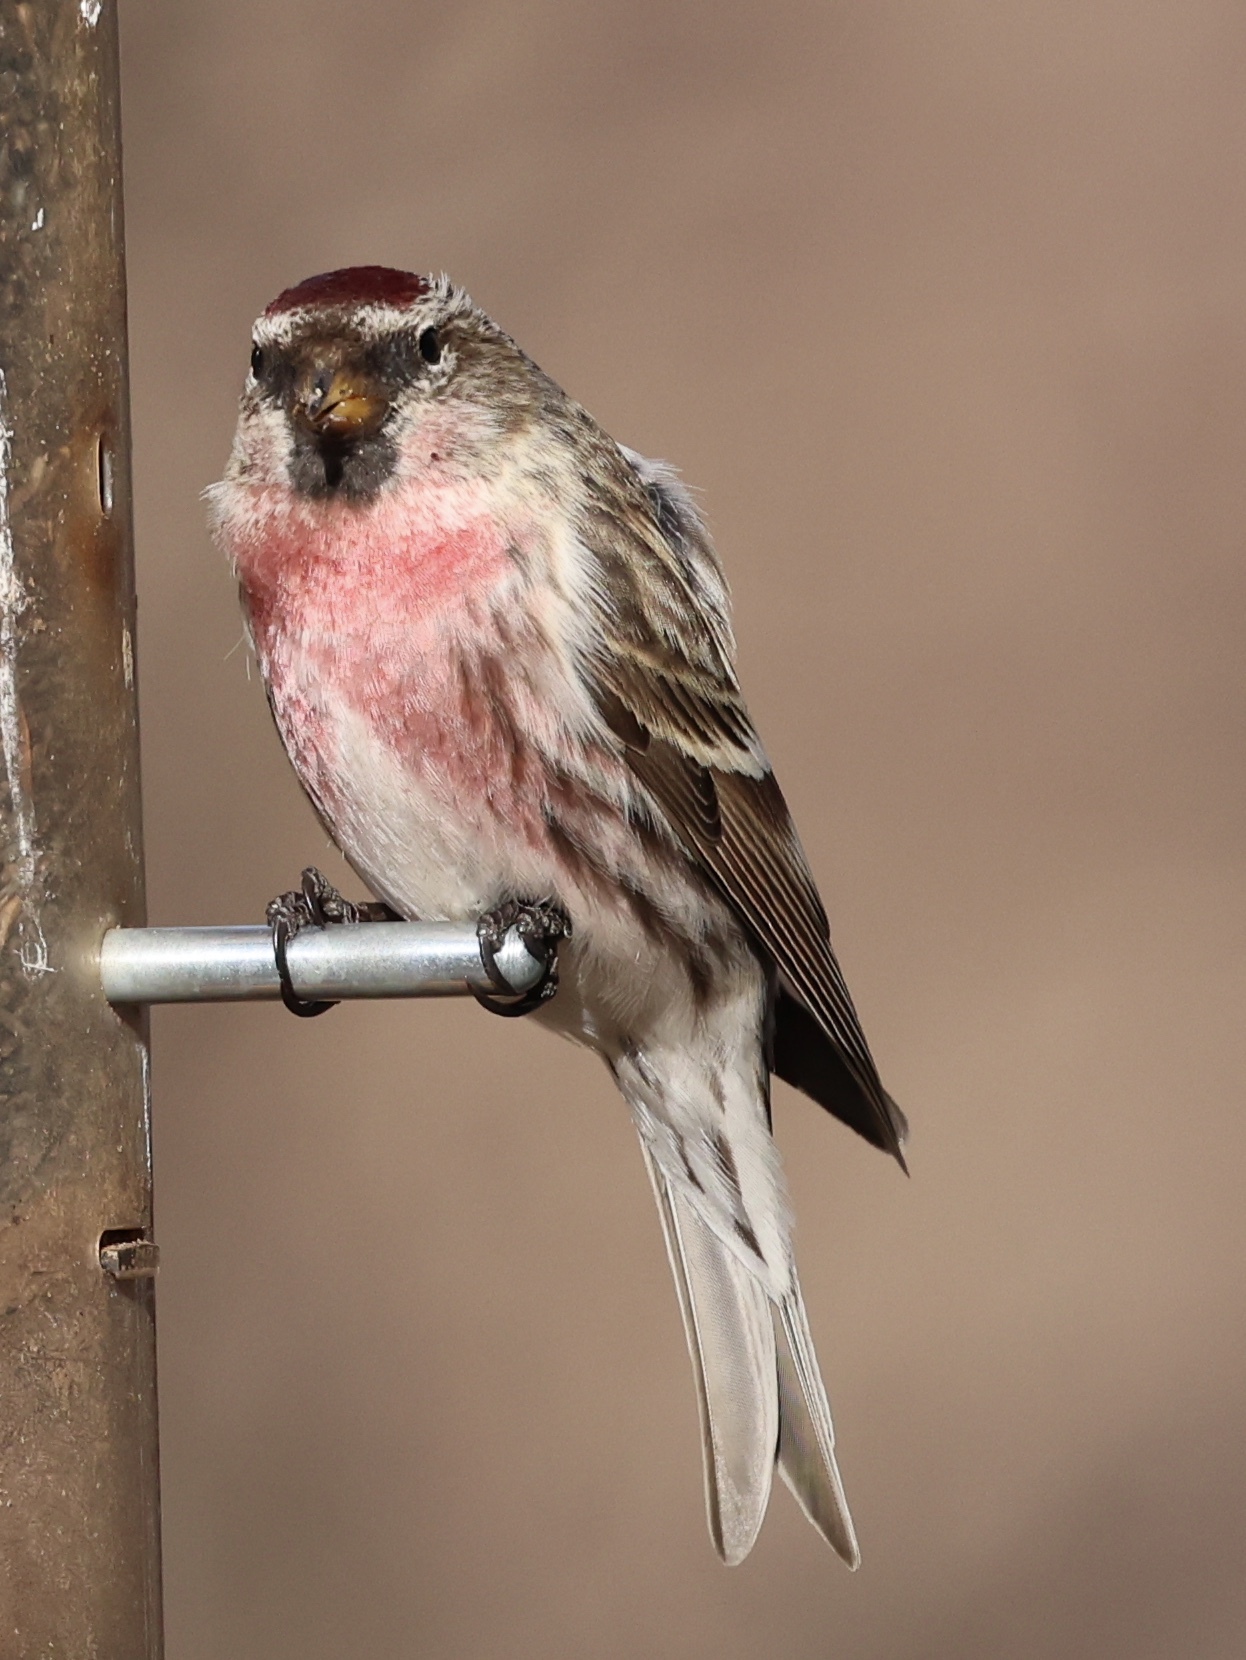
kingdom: Animalia
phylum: Chordata
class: Aves
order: Passeriformes
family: Fringillidae
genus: Acanthis
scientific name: Acanthis flammea
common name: Common redpoll
